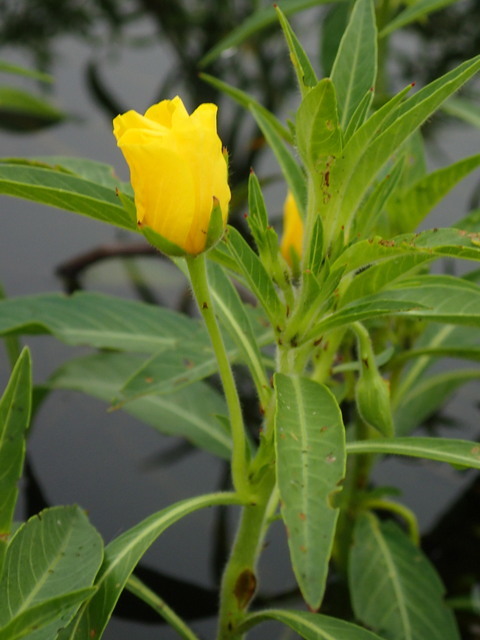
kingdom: Plantae
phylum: Tracheophyta
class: Magnoliopsida
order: Myrtales
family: Onagraceae
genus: Ludwigia
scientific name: Ludwigia hexapetala
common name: Water-primrose
